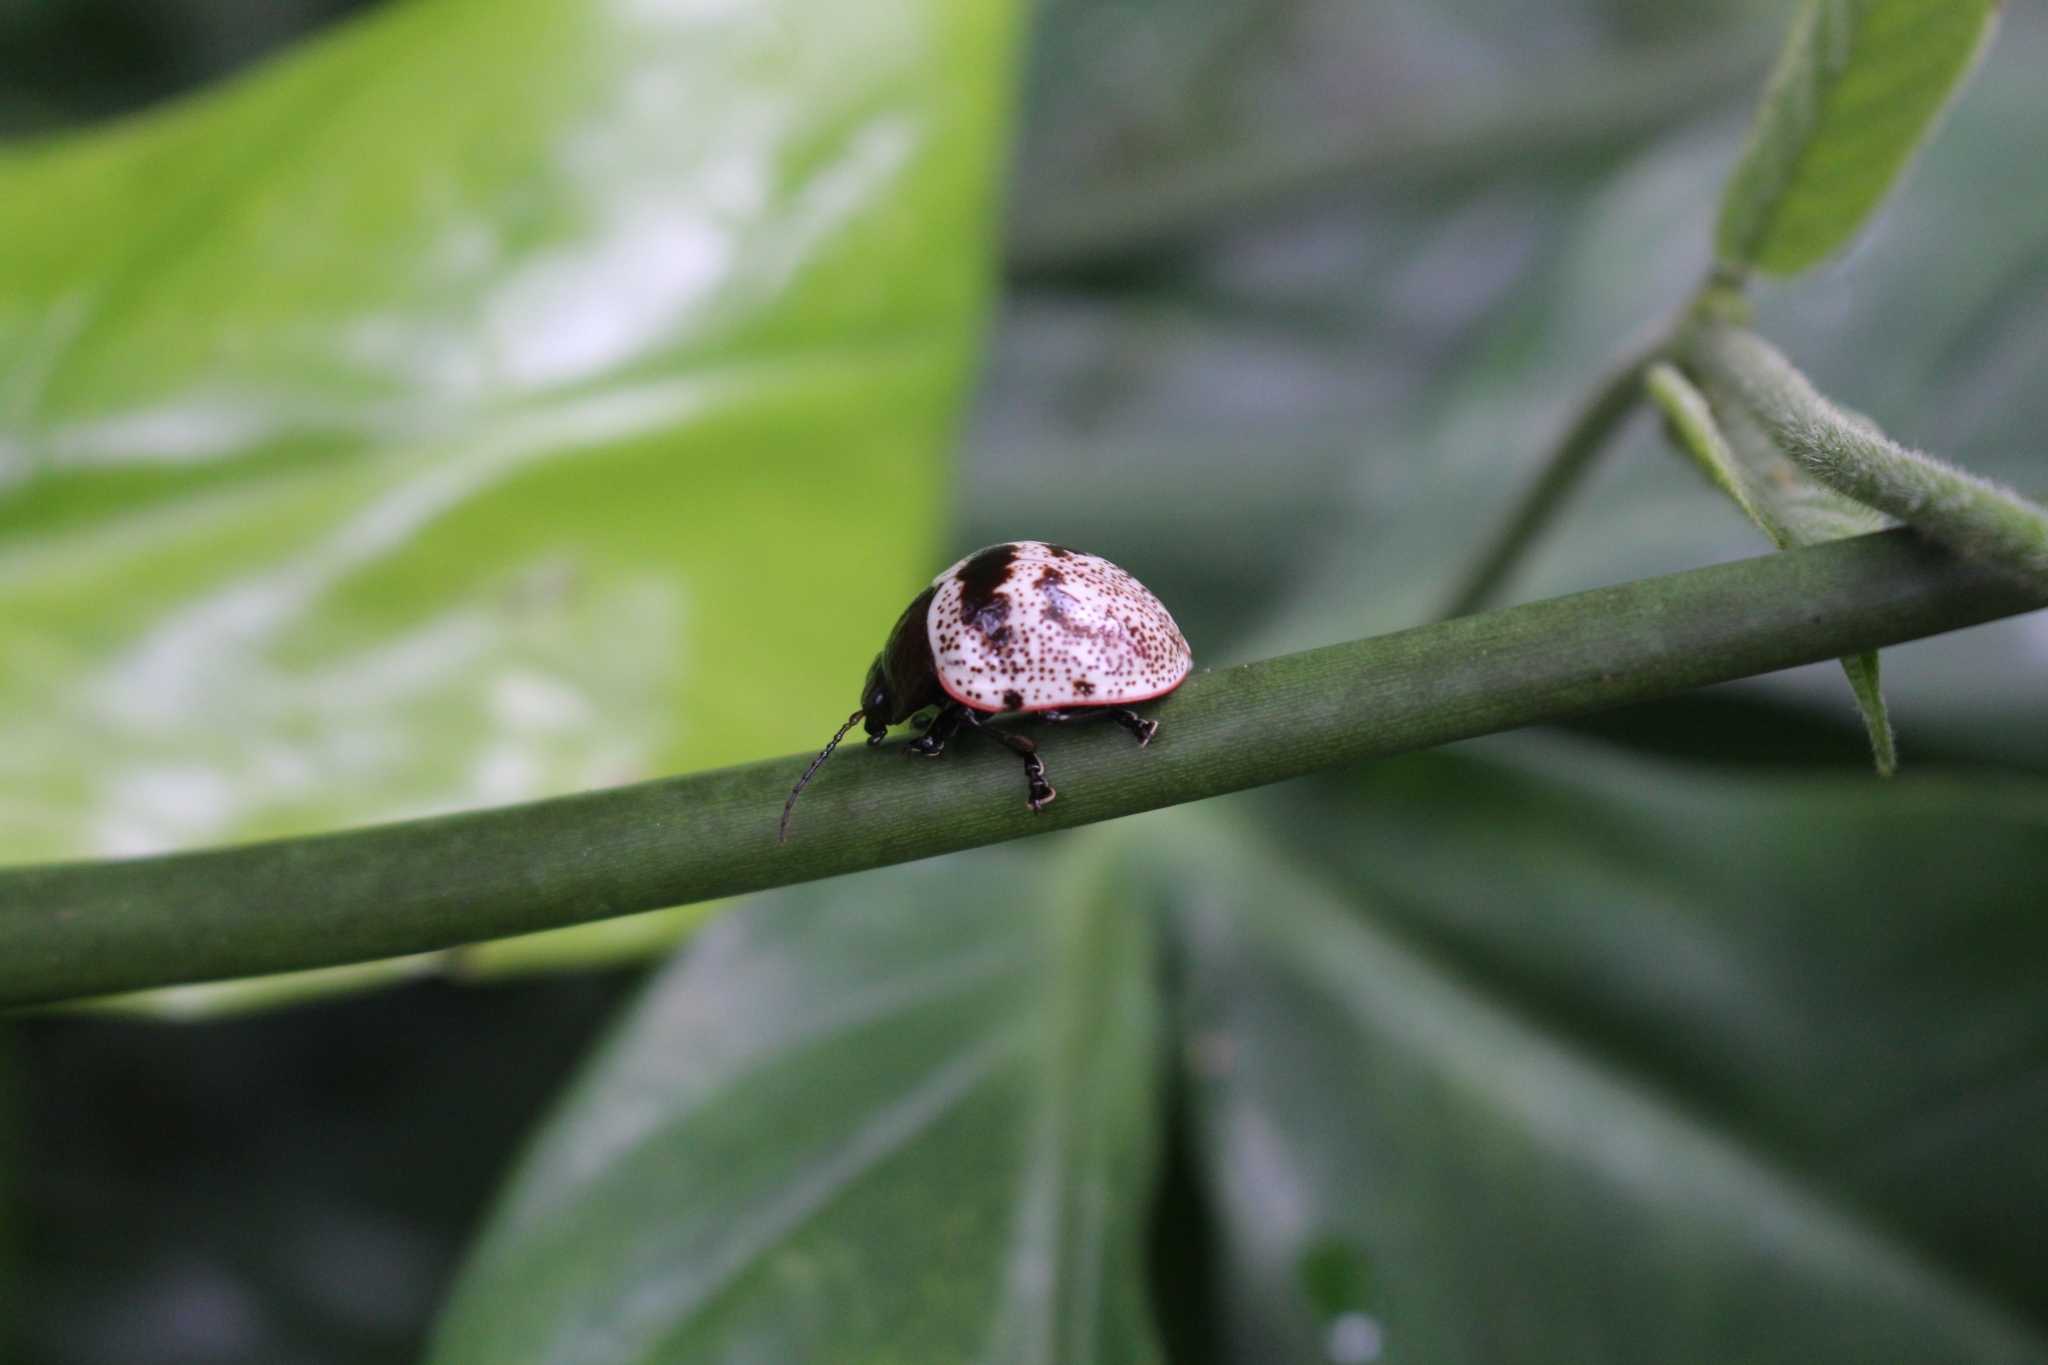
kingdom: Animalia
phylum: Arthropoda
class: Insecta
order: Coleoptera
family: Chrysomelidae
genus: Platyphora
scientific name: Platyphora petulans
